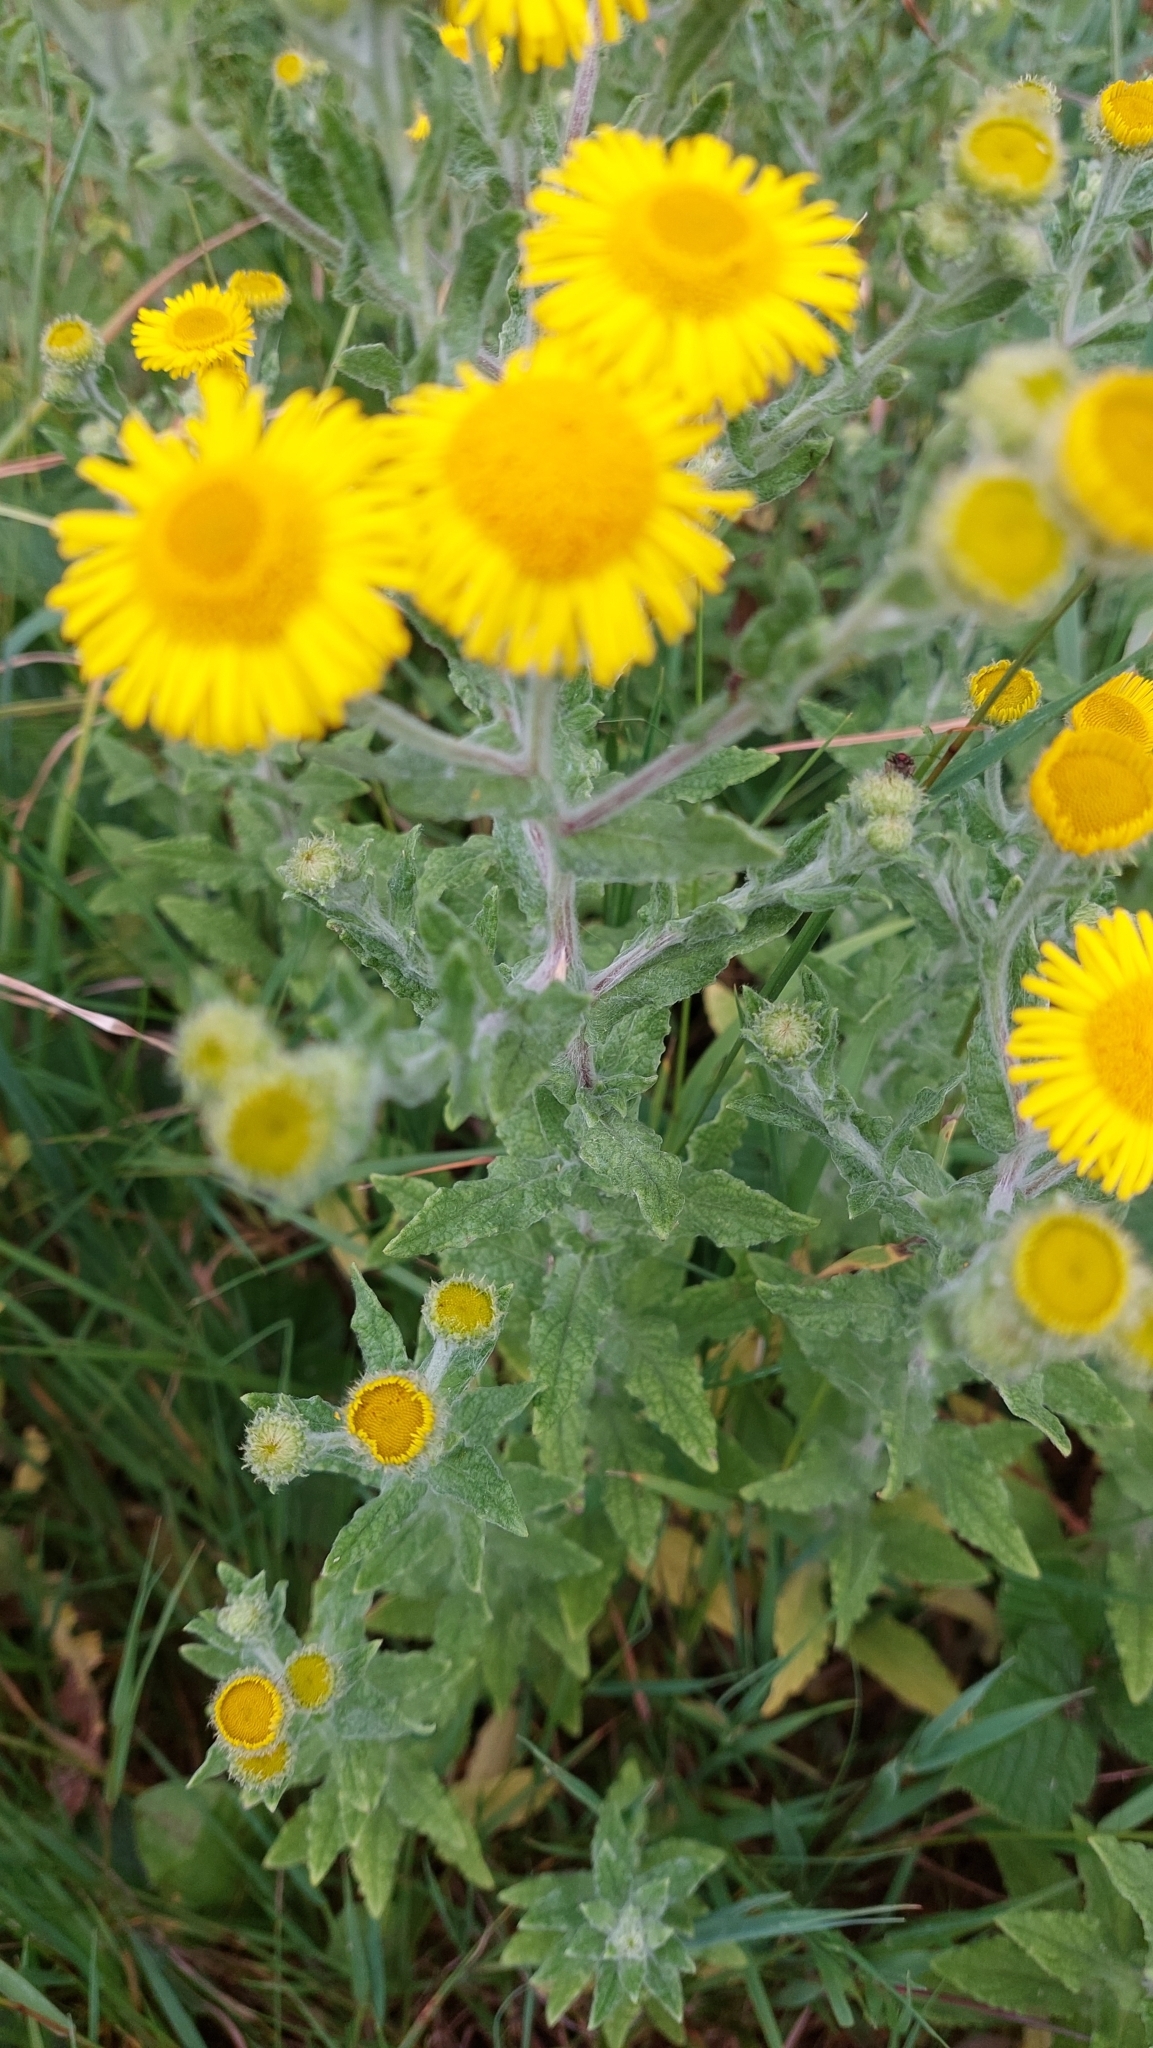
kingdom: Plantae
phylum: Tracheophyta
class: Magnoliopsida
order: Asterales
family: Asteraceae
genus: Pulicaria
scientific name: Pulicaria dysenterica
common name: Common fleabane
